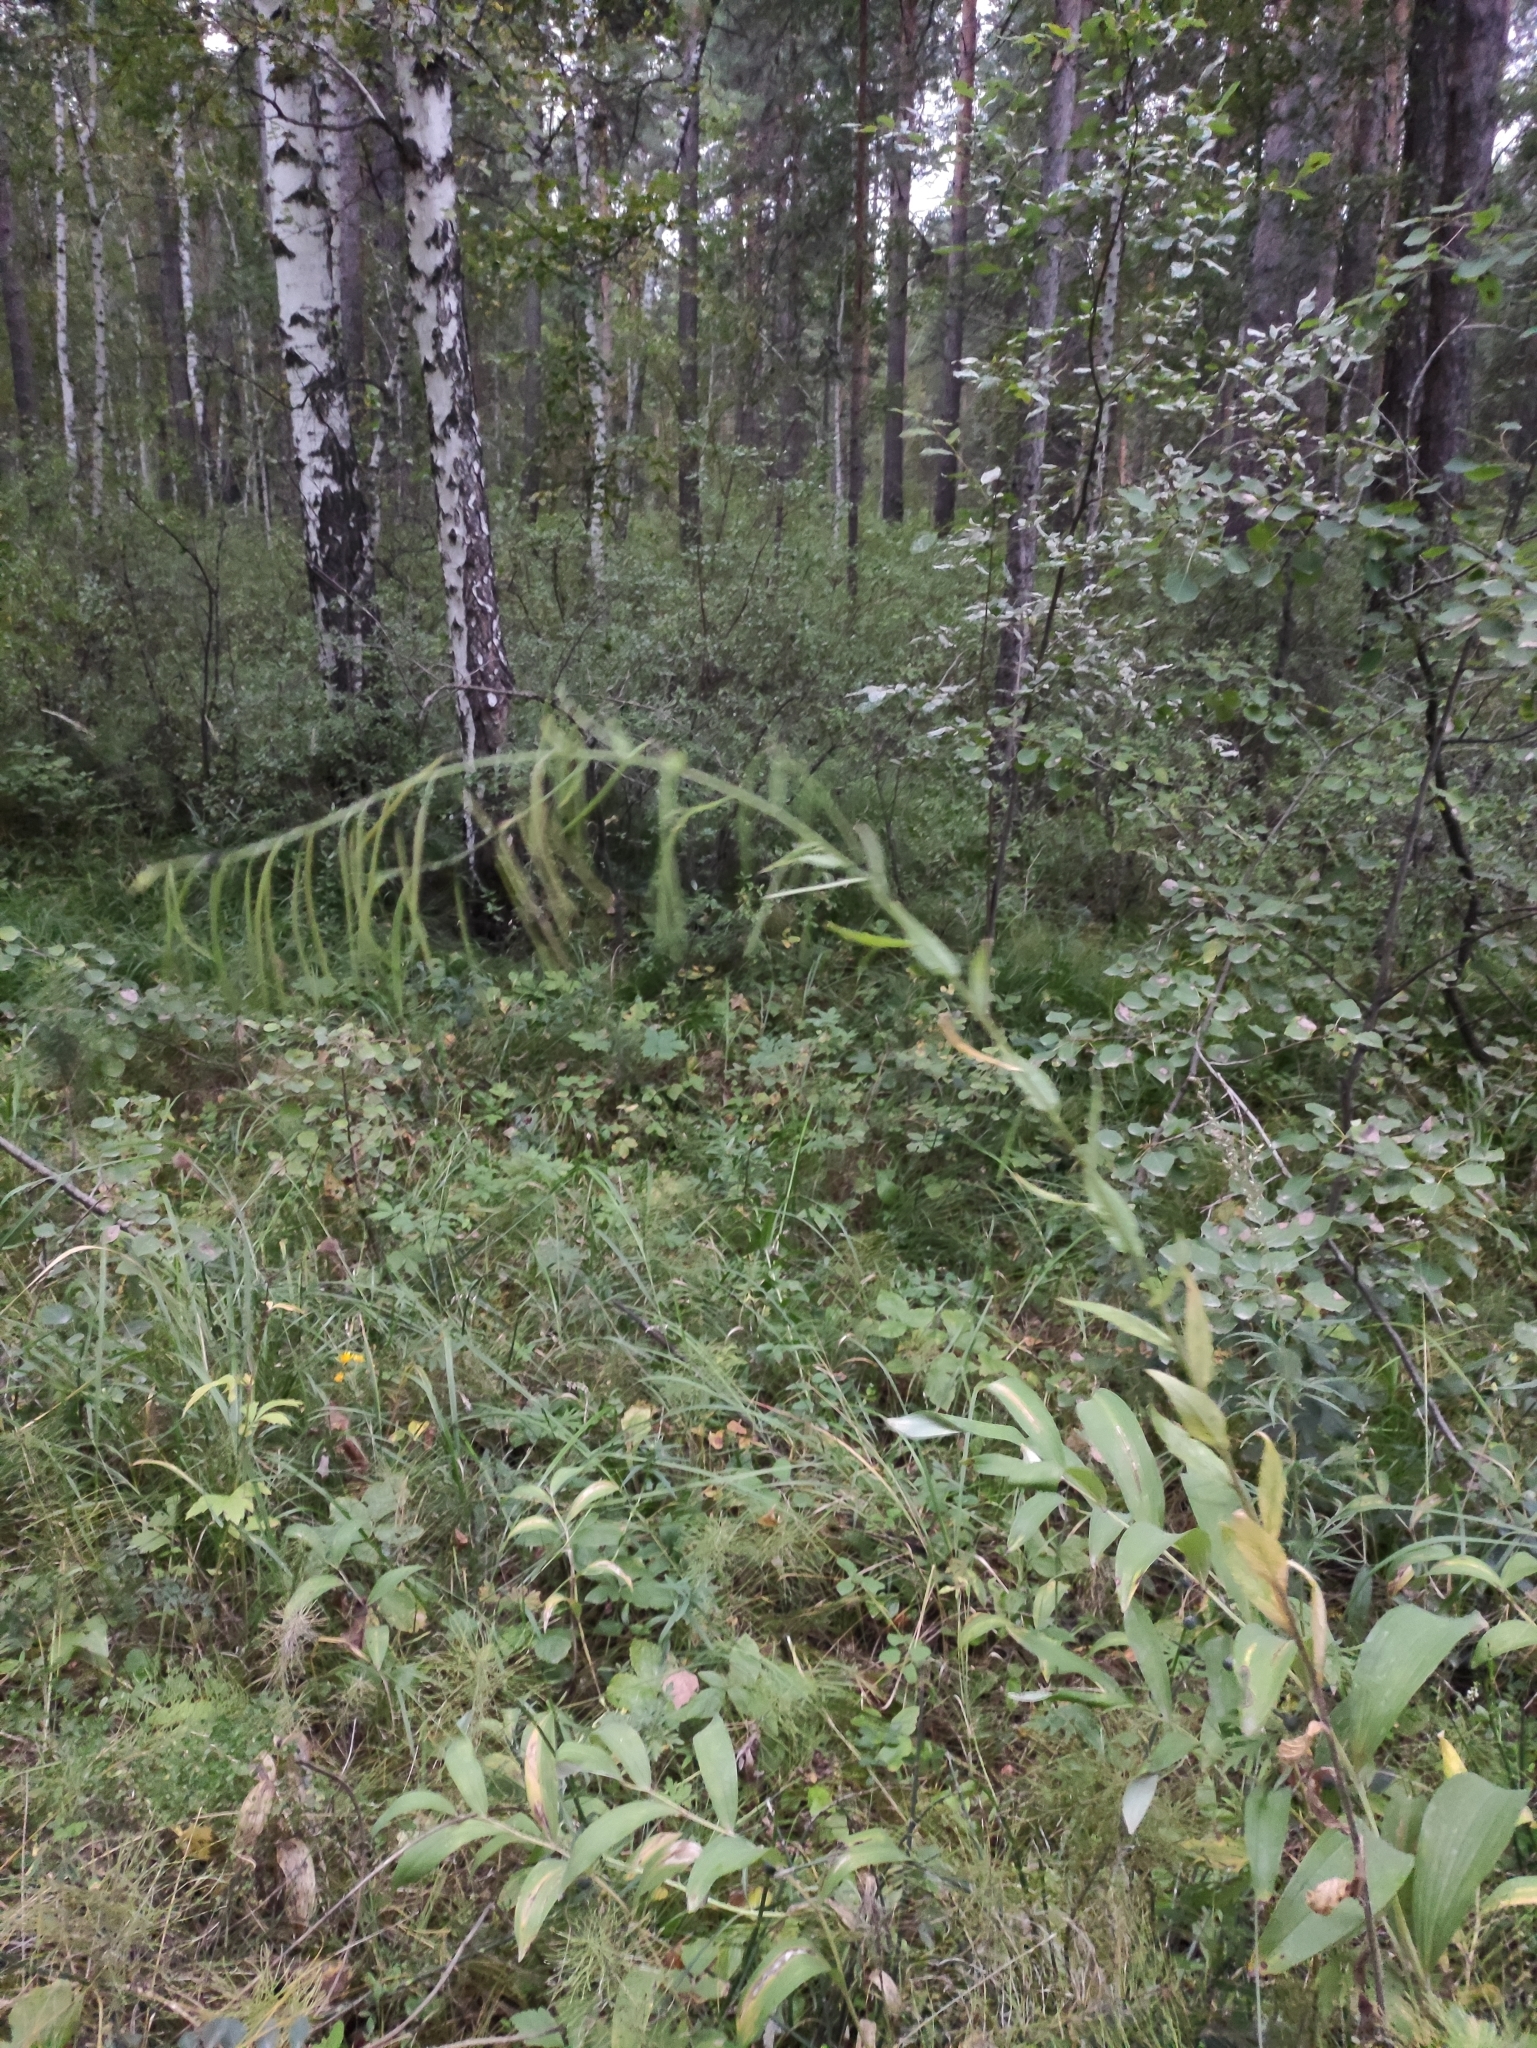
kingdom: Plantae
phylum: Tracheophyta
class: Magnoliopsida
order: Brassicales
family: Brassicaceae
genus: Catolobus
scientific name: Catolobus pendulus
